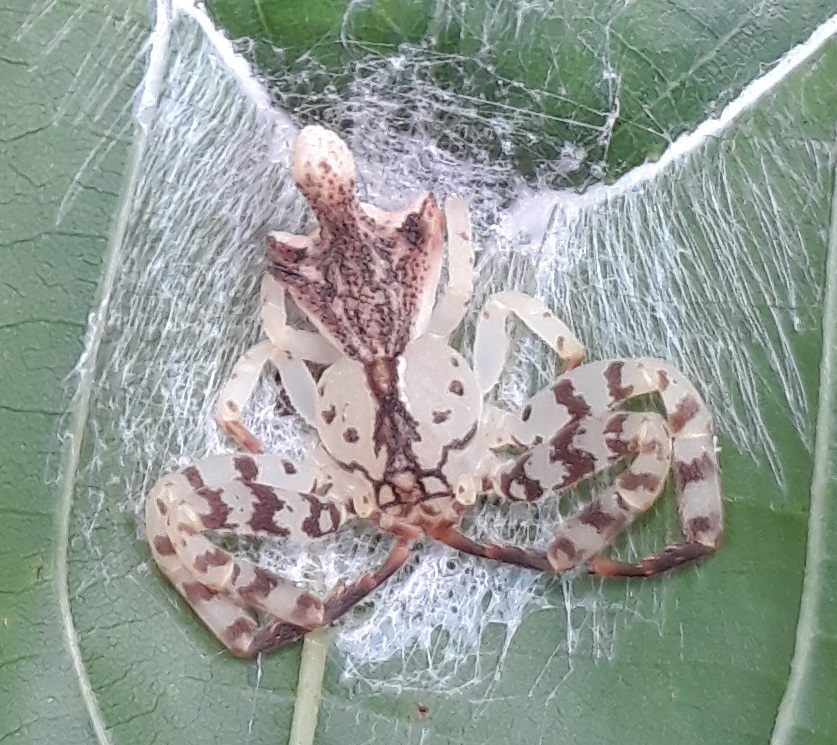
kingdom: Animalia
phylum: Arthropoda
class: Arachnida
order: Araneae
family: Thomisidae
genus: Epicadus
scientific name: Epicadus rubripes
